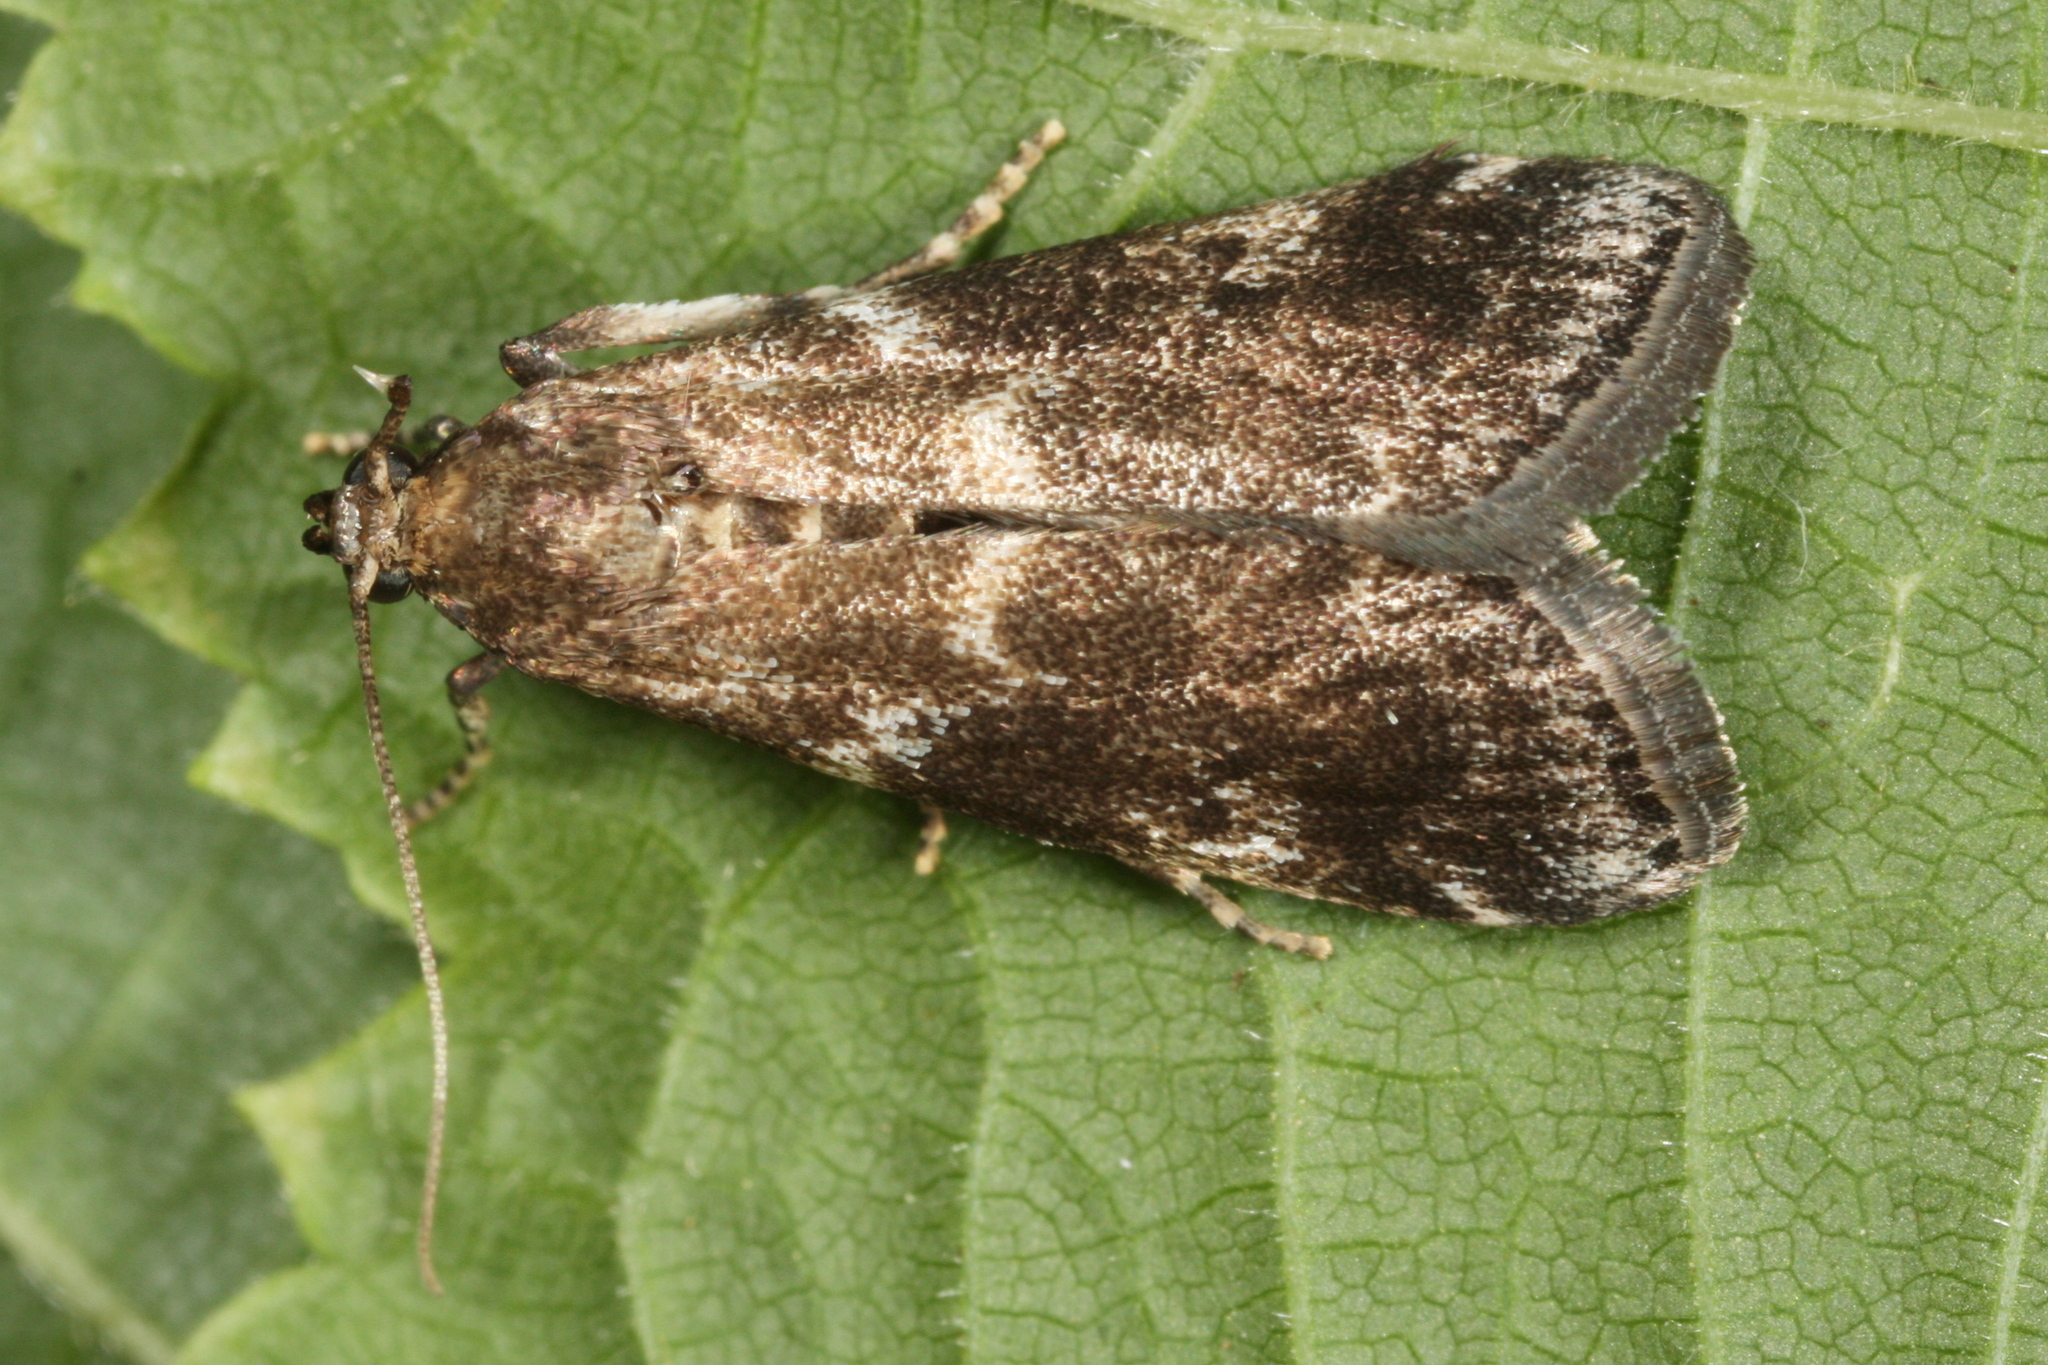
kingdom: Animalia
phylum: Arthropoda
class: Insecta
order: Lepidoptera
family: Pyralidae
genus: Assara
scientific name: Assara terebrella
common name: Dark spruce knot-horn
